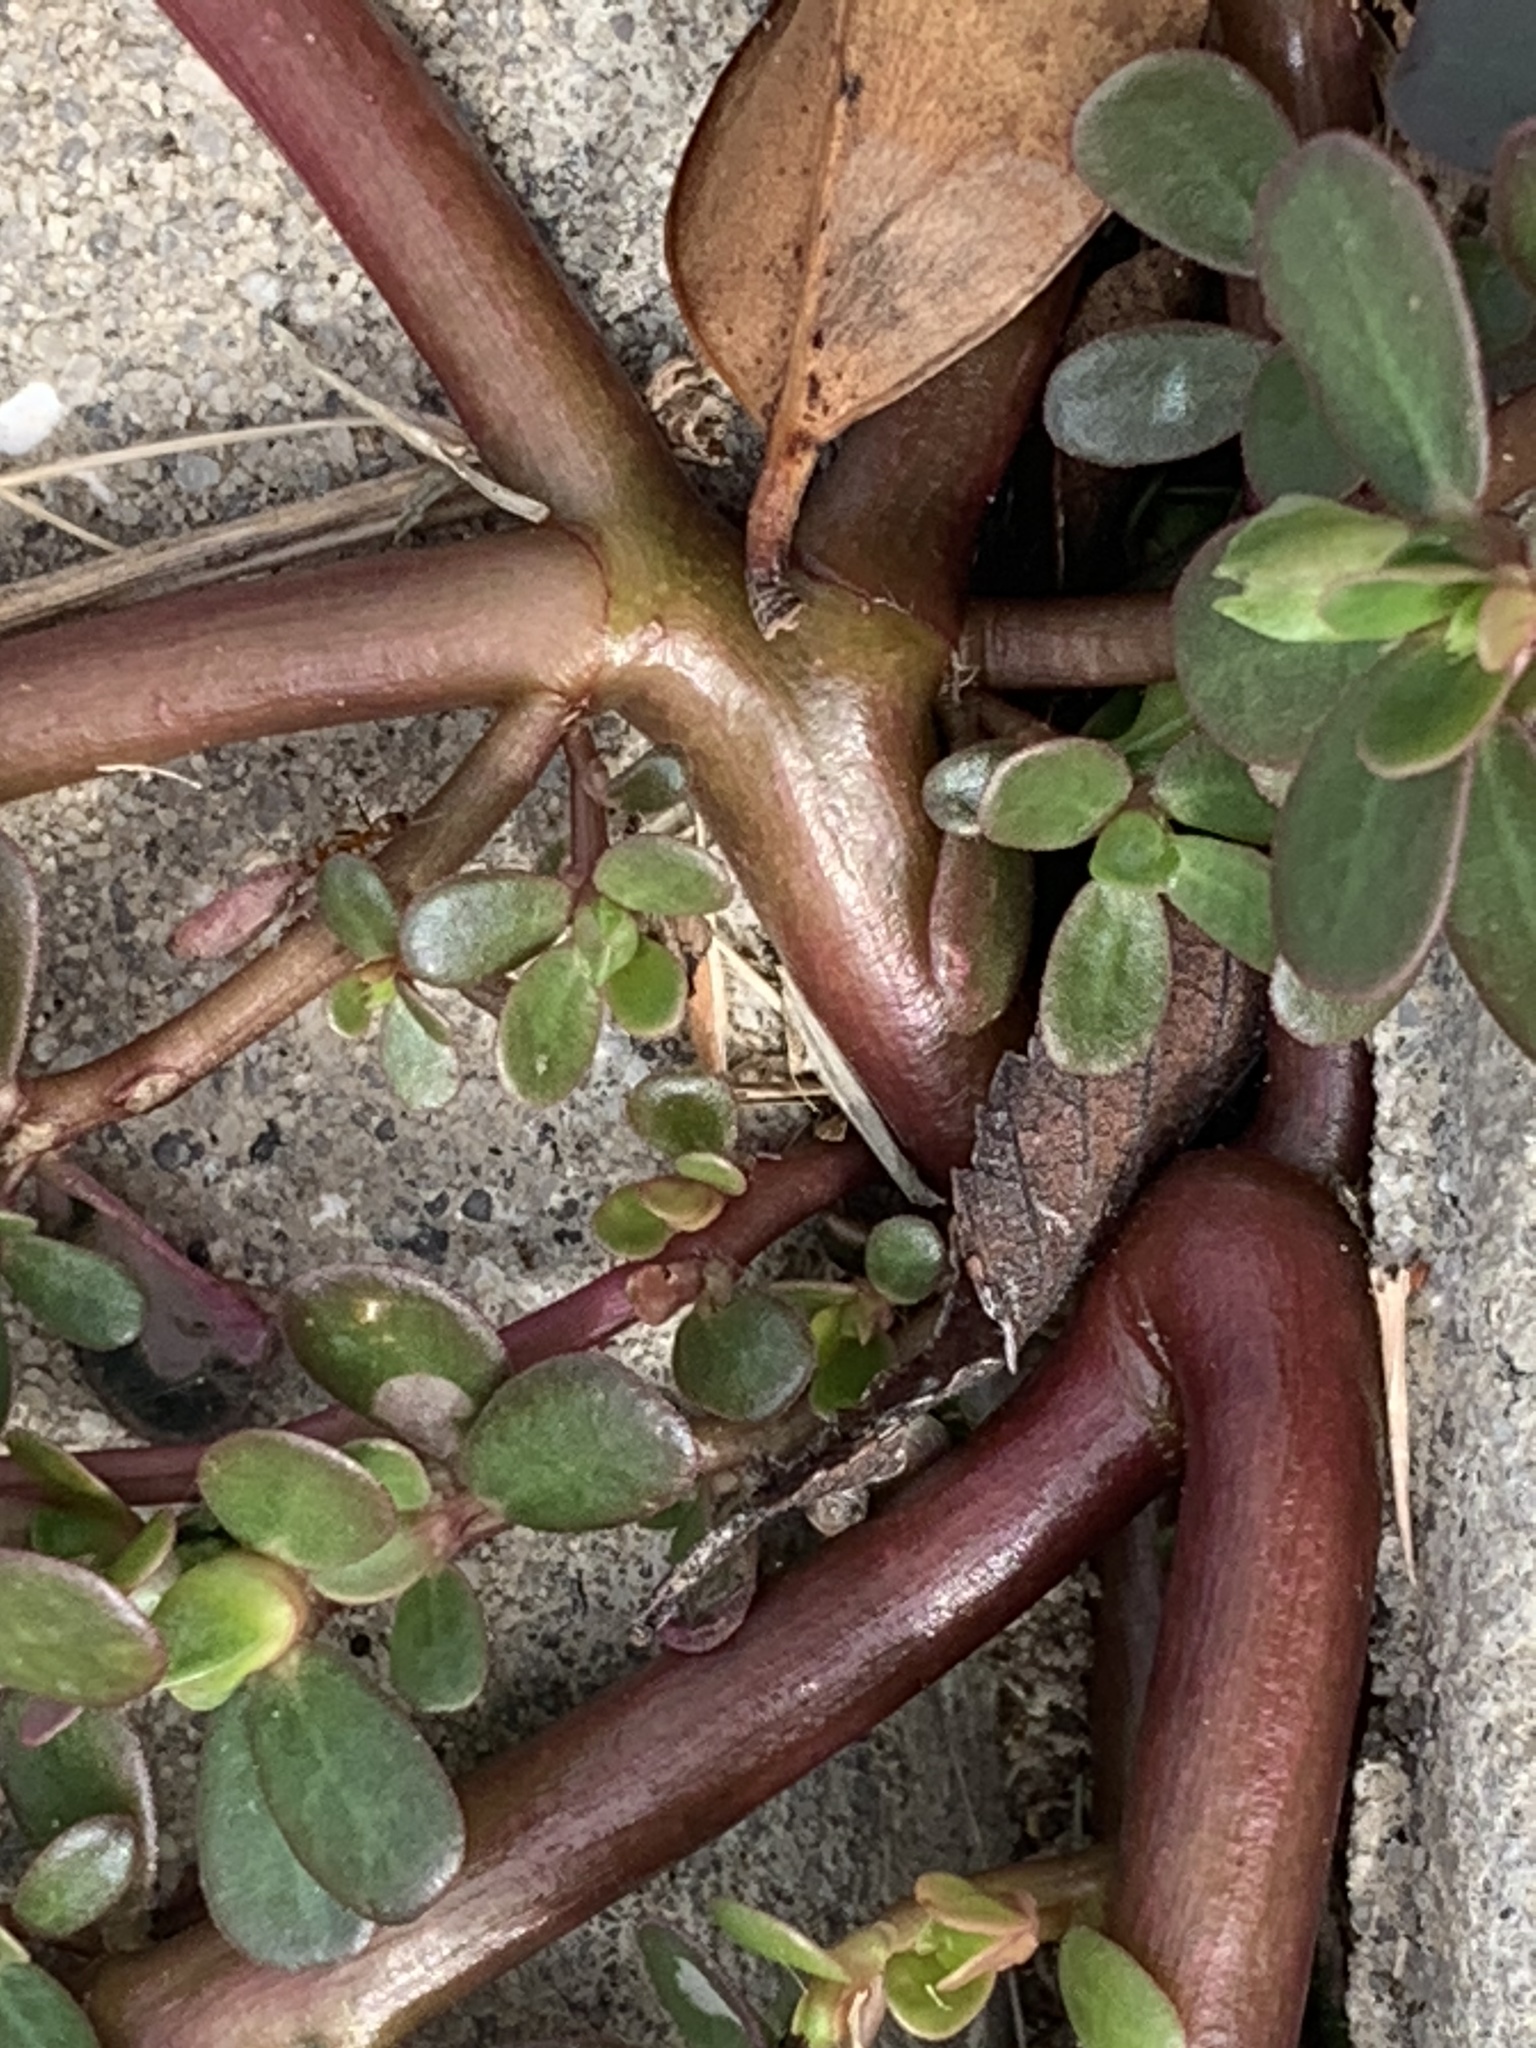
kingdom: Plantae
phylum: Tracheophyta
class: Magnoliopsida
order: Caryophyllales
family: Portulacaceae
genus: Portulaca
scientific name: Portulaca oleracea
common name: Common purslane
